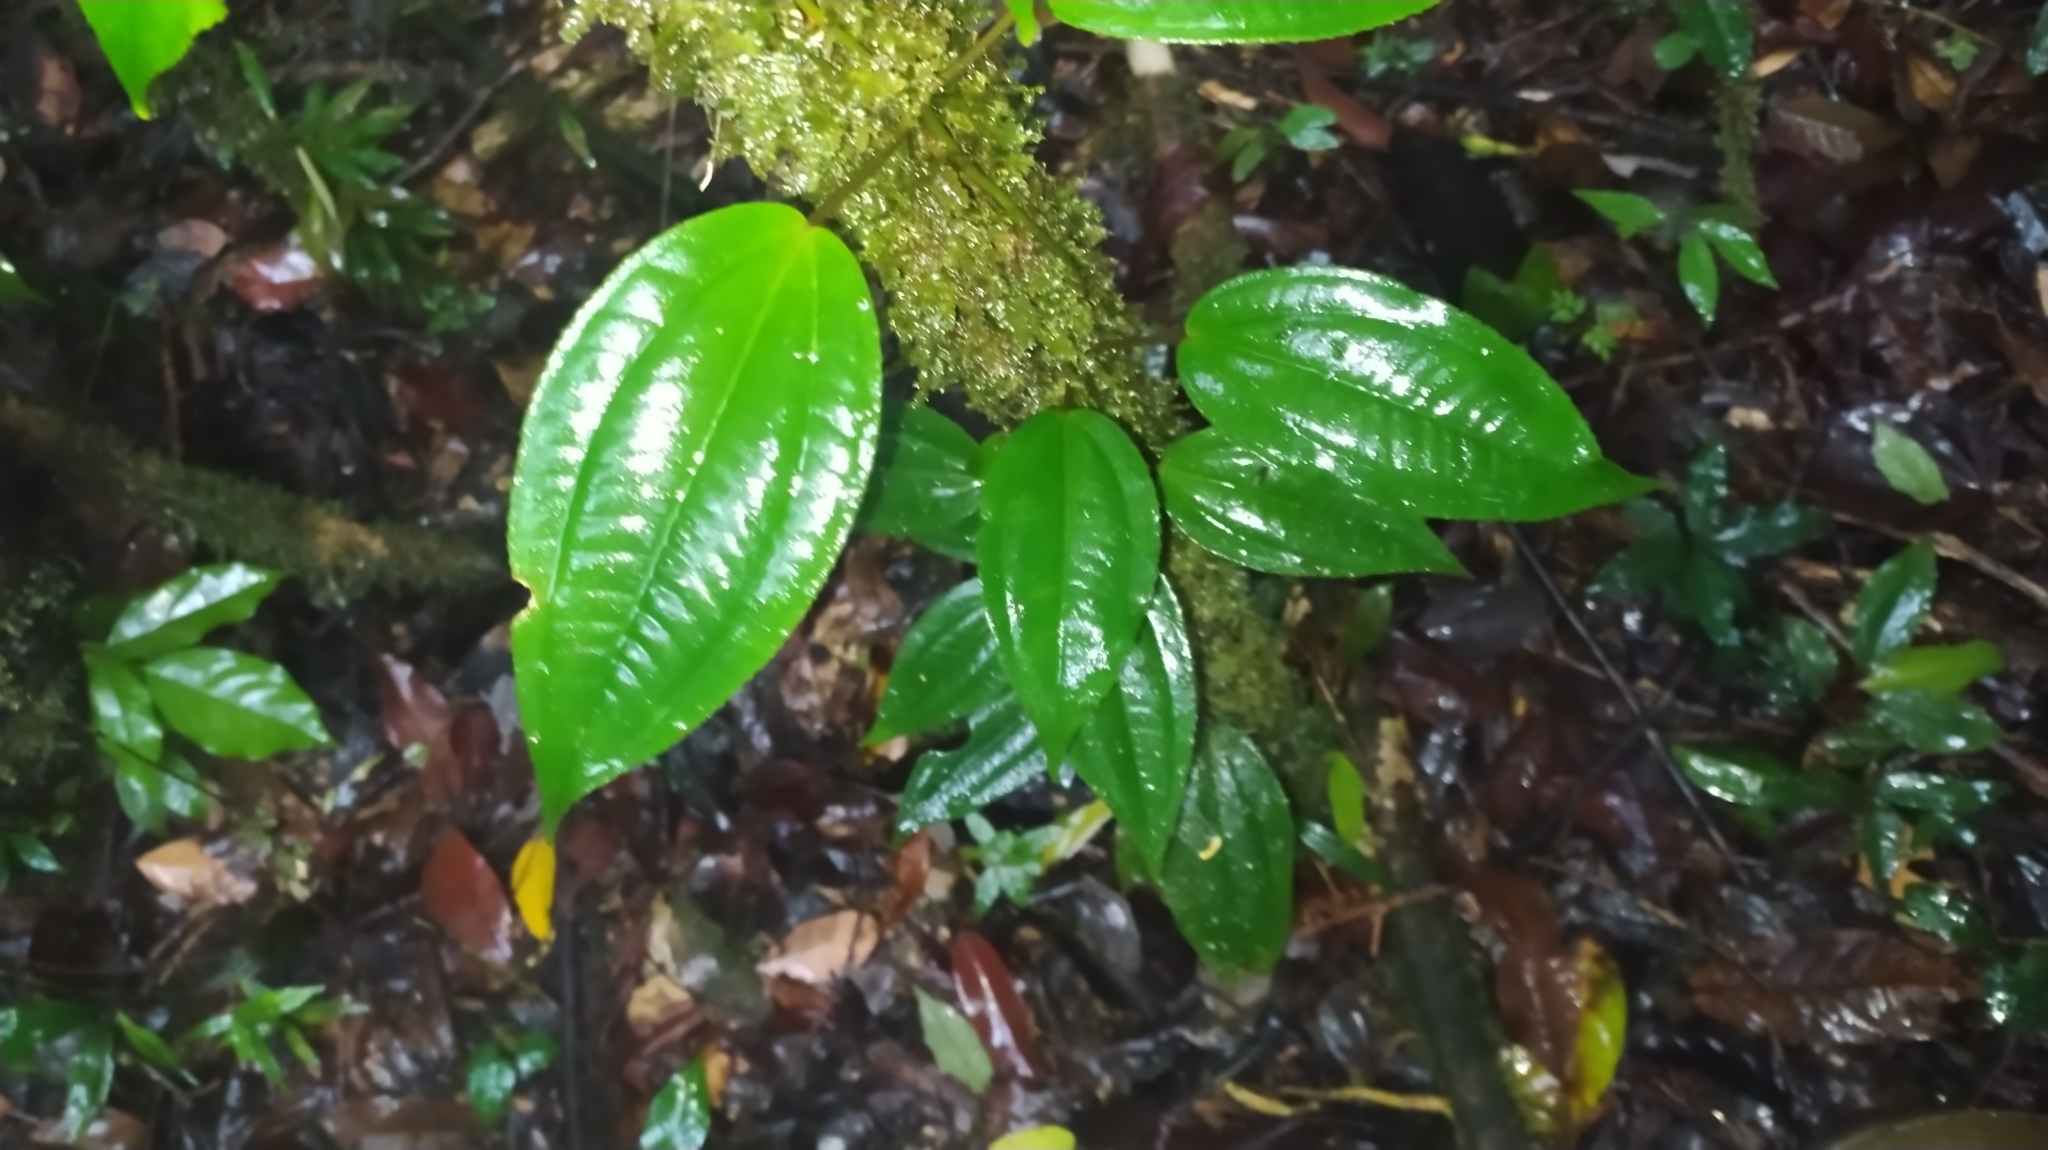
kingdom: Plantae
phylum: Tracheophyta
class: Magnoliopsida
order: Myrtales
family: Melastomataceae
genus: Adelobotrys
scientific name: Adelobotrys adscendens
